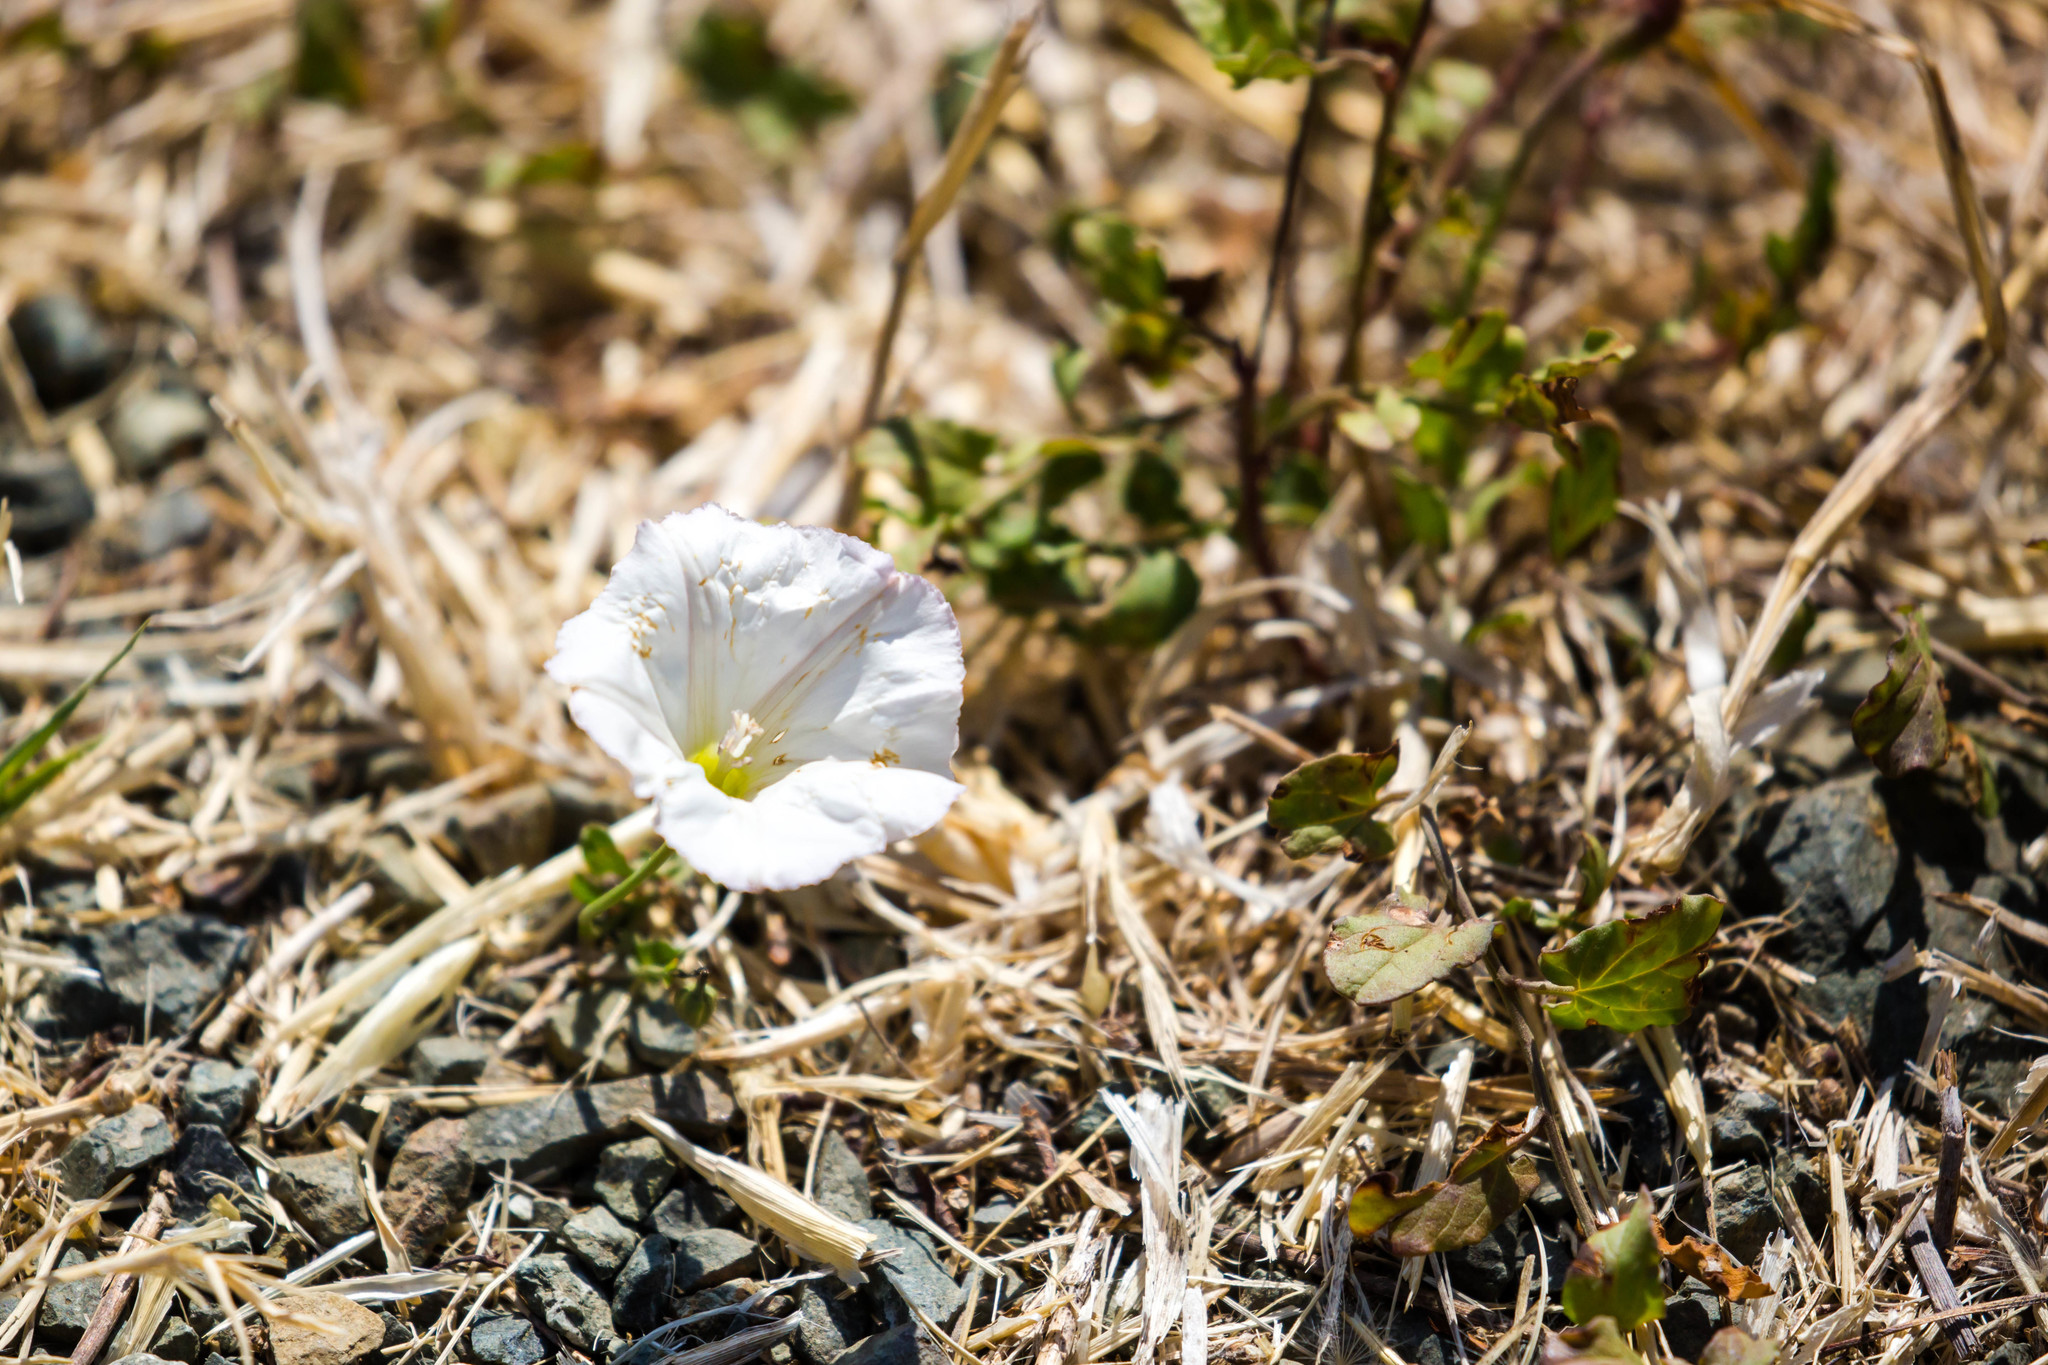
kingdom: Plantae
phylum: Tracheophyta
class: Magnoliopsida
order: Solanales
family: Convolvulaceae
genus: Convolvulus
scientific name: Convolvulus arvensis
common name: Field bindweed
